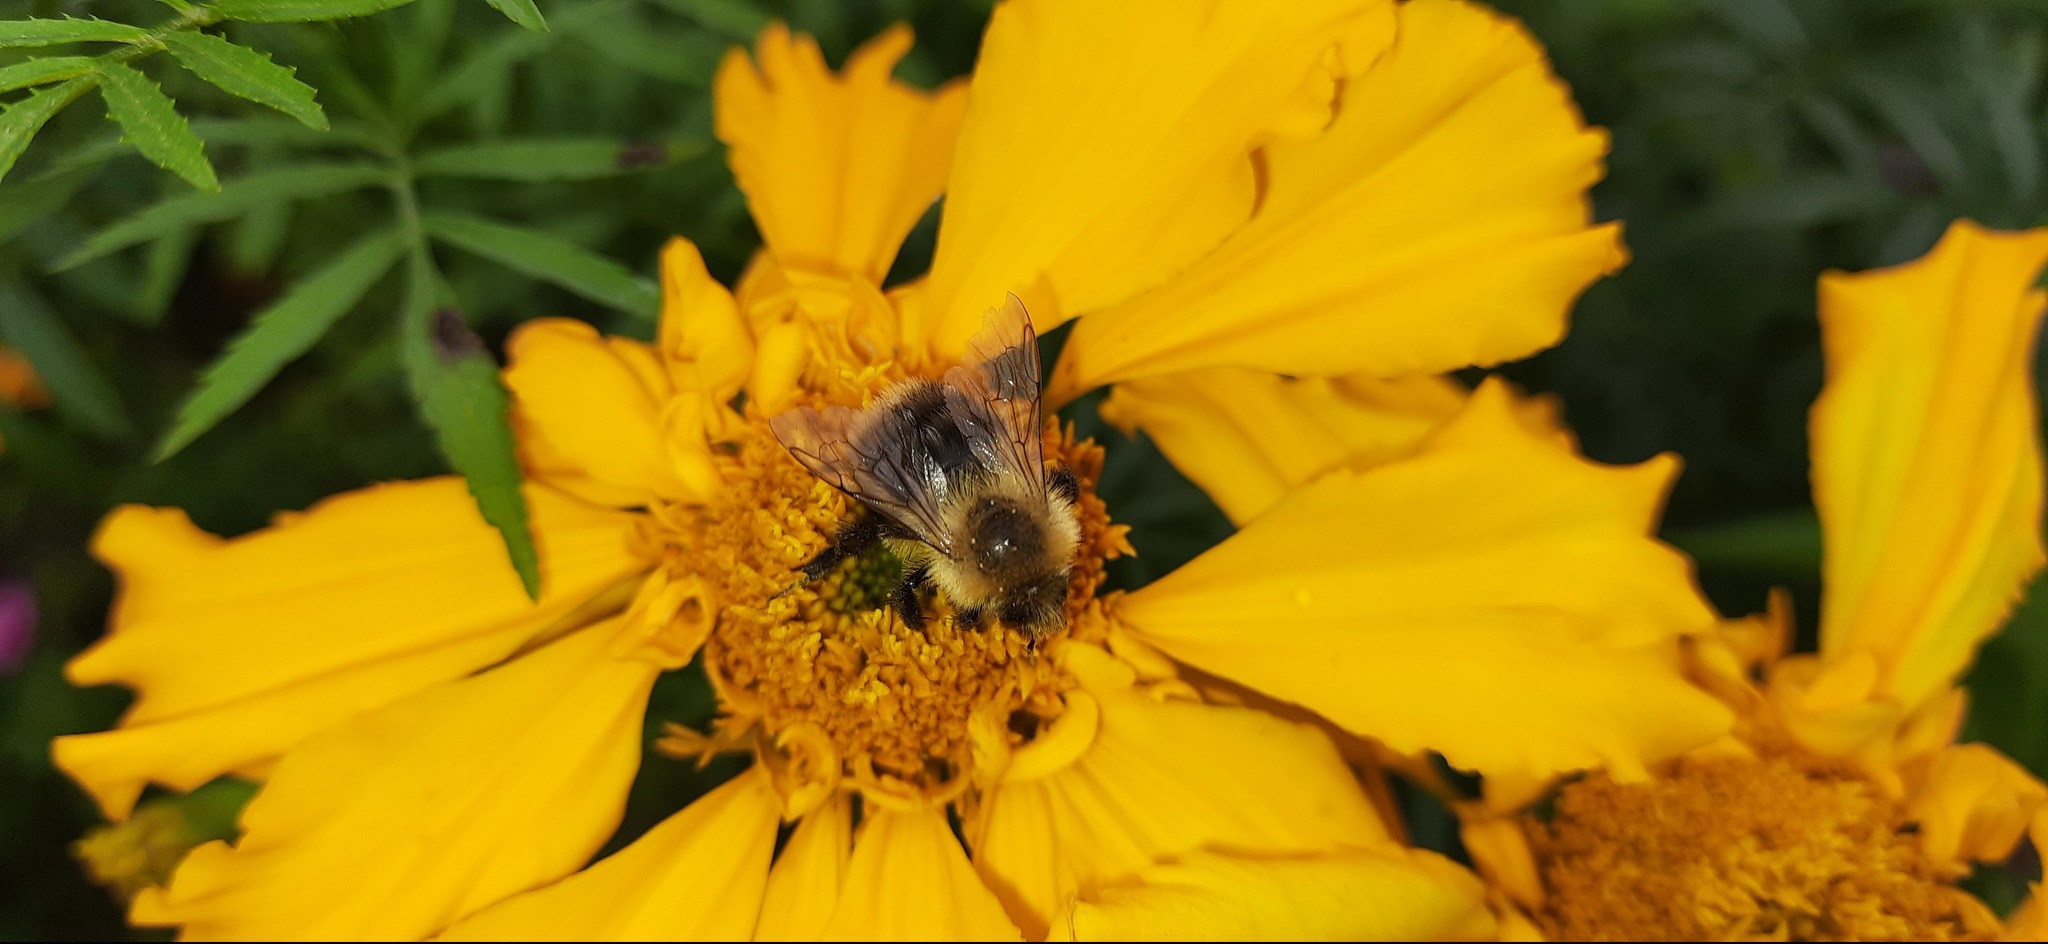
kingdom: Animalia
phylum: Arthropoda
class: Insecta
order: Hymenoptera
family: Apidae
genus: Bombus
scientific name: Bombus pascuorum
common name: Common carder bee
